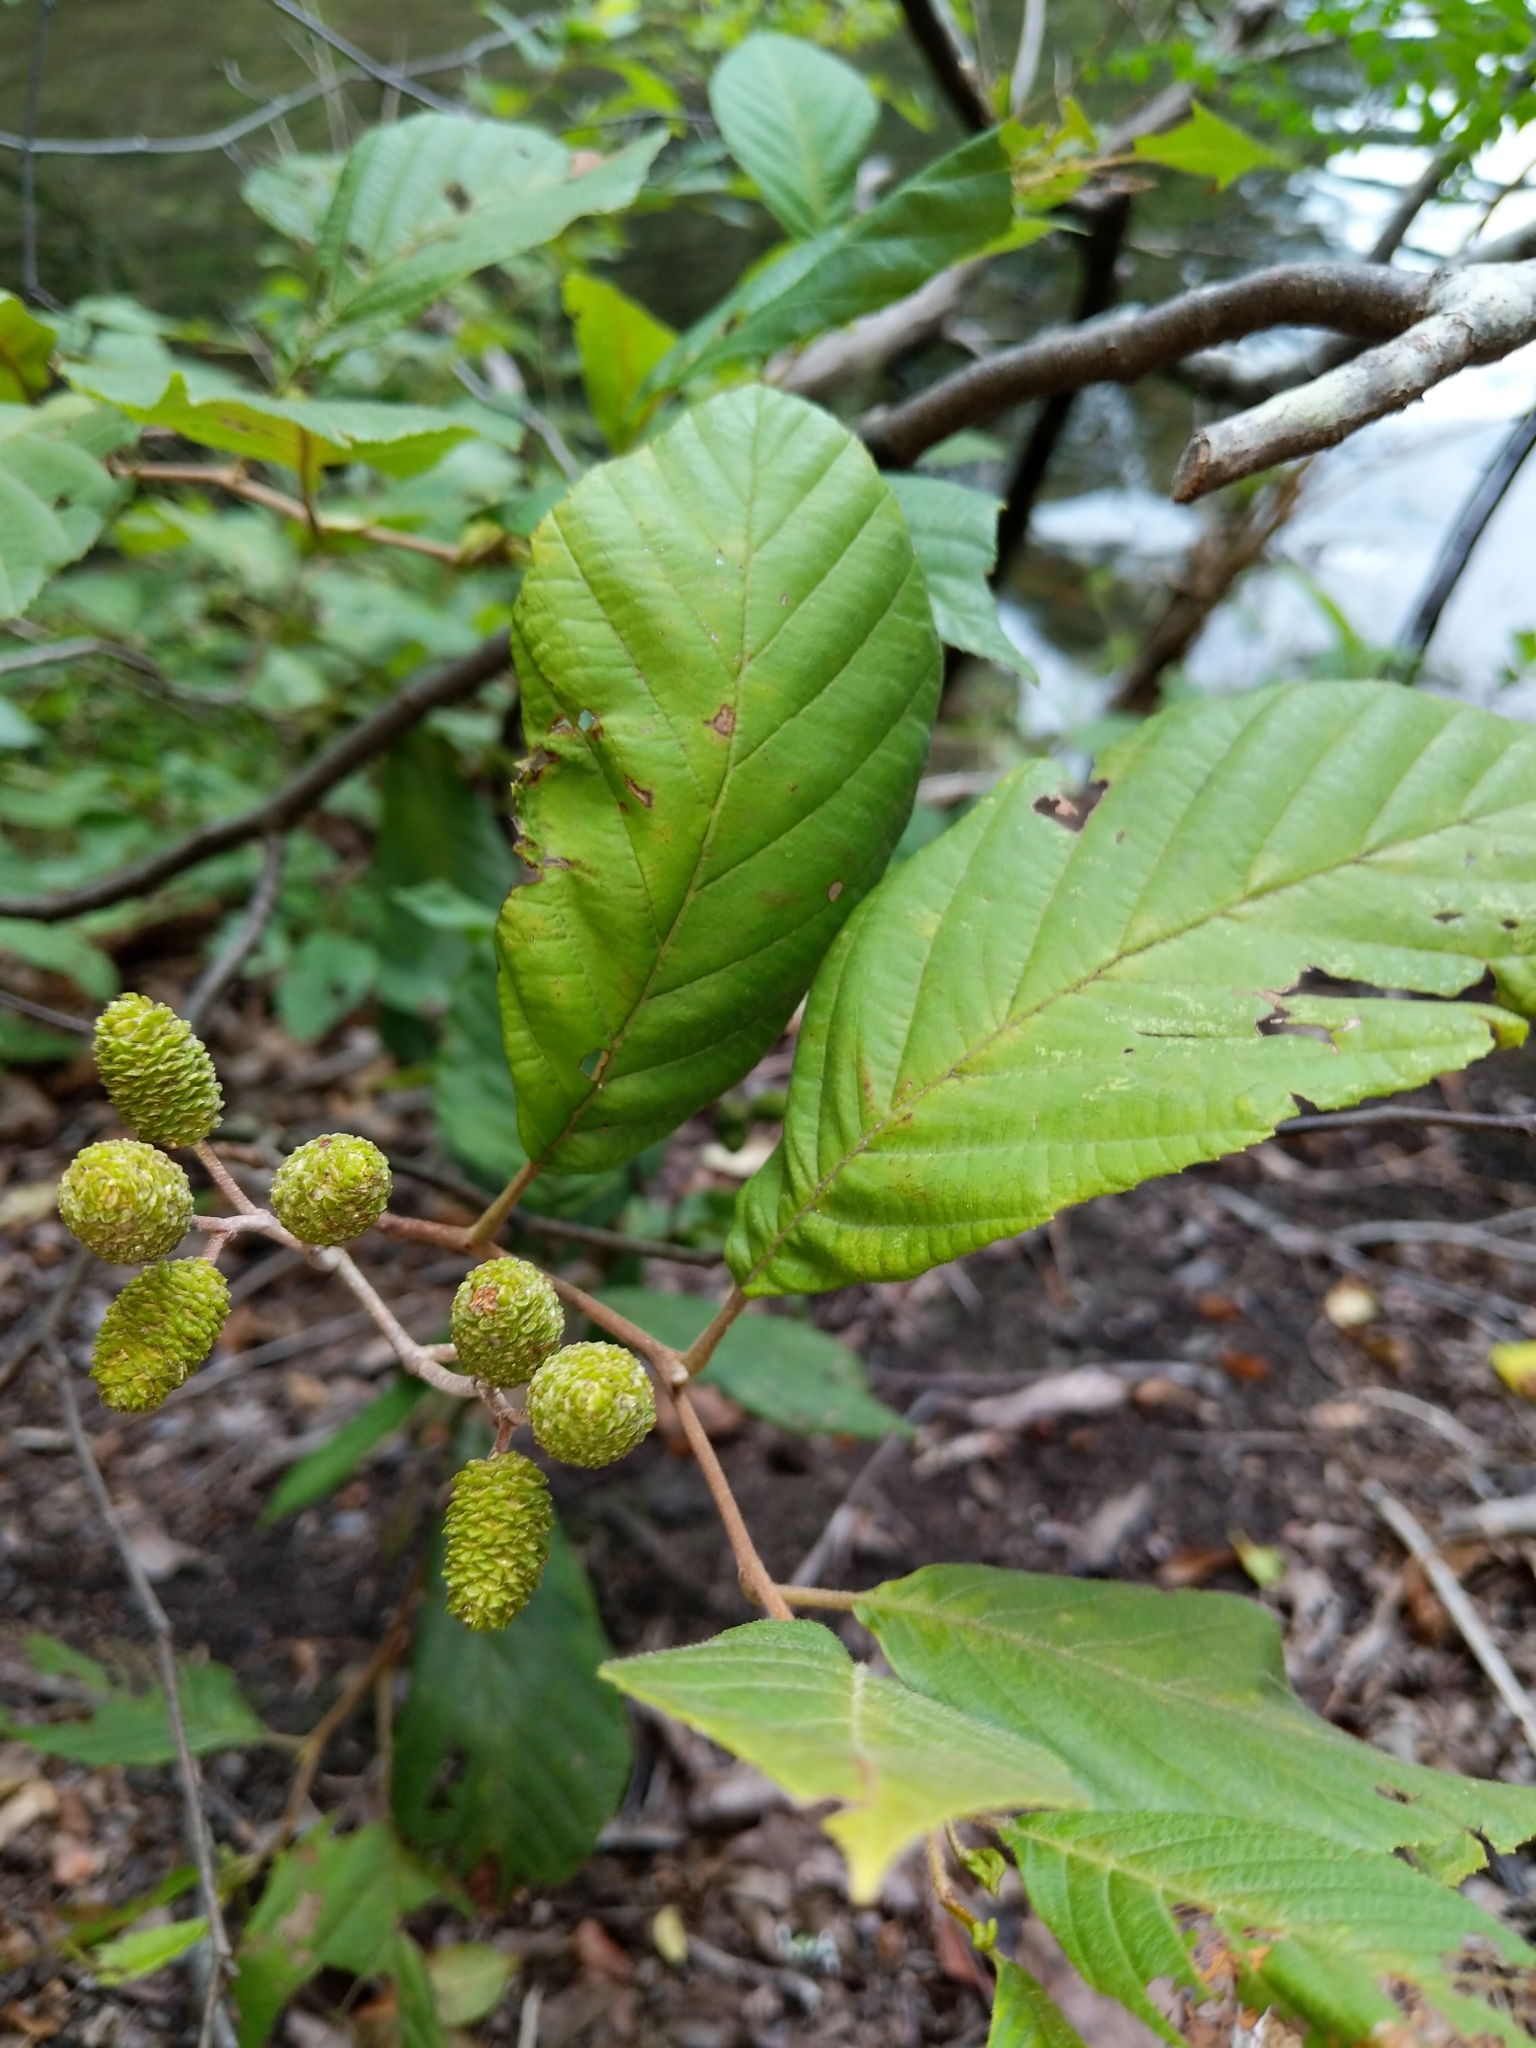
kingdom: Plantae
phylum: Tracheophyta
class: Magnoliopsida
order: Fagales
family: Betulaceae
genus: Alnus
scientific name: Alnus serrulata
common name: Hazel alder
